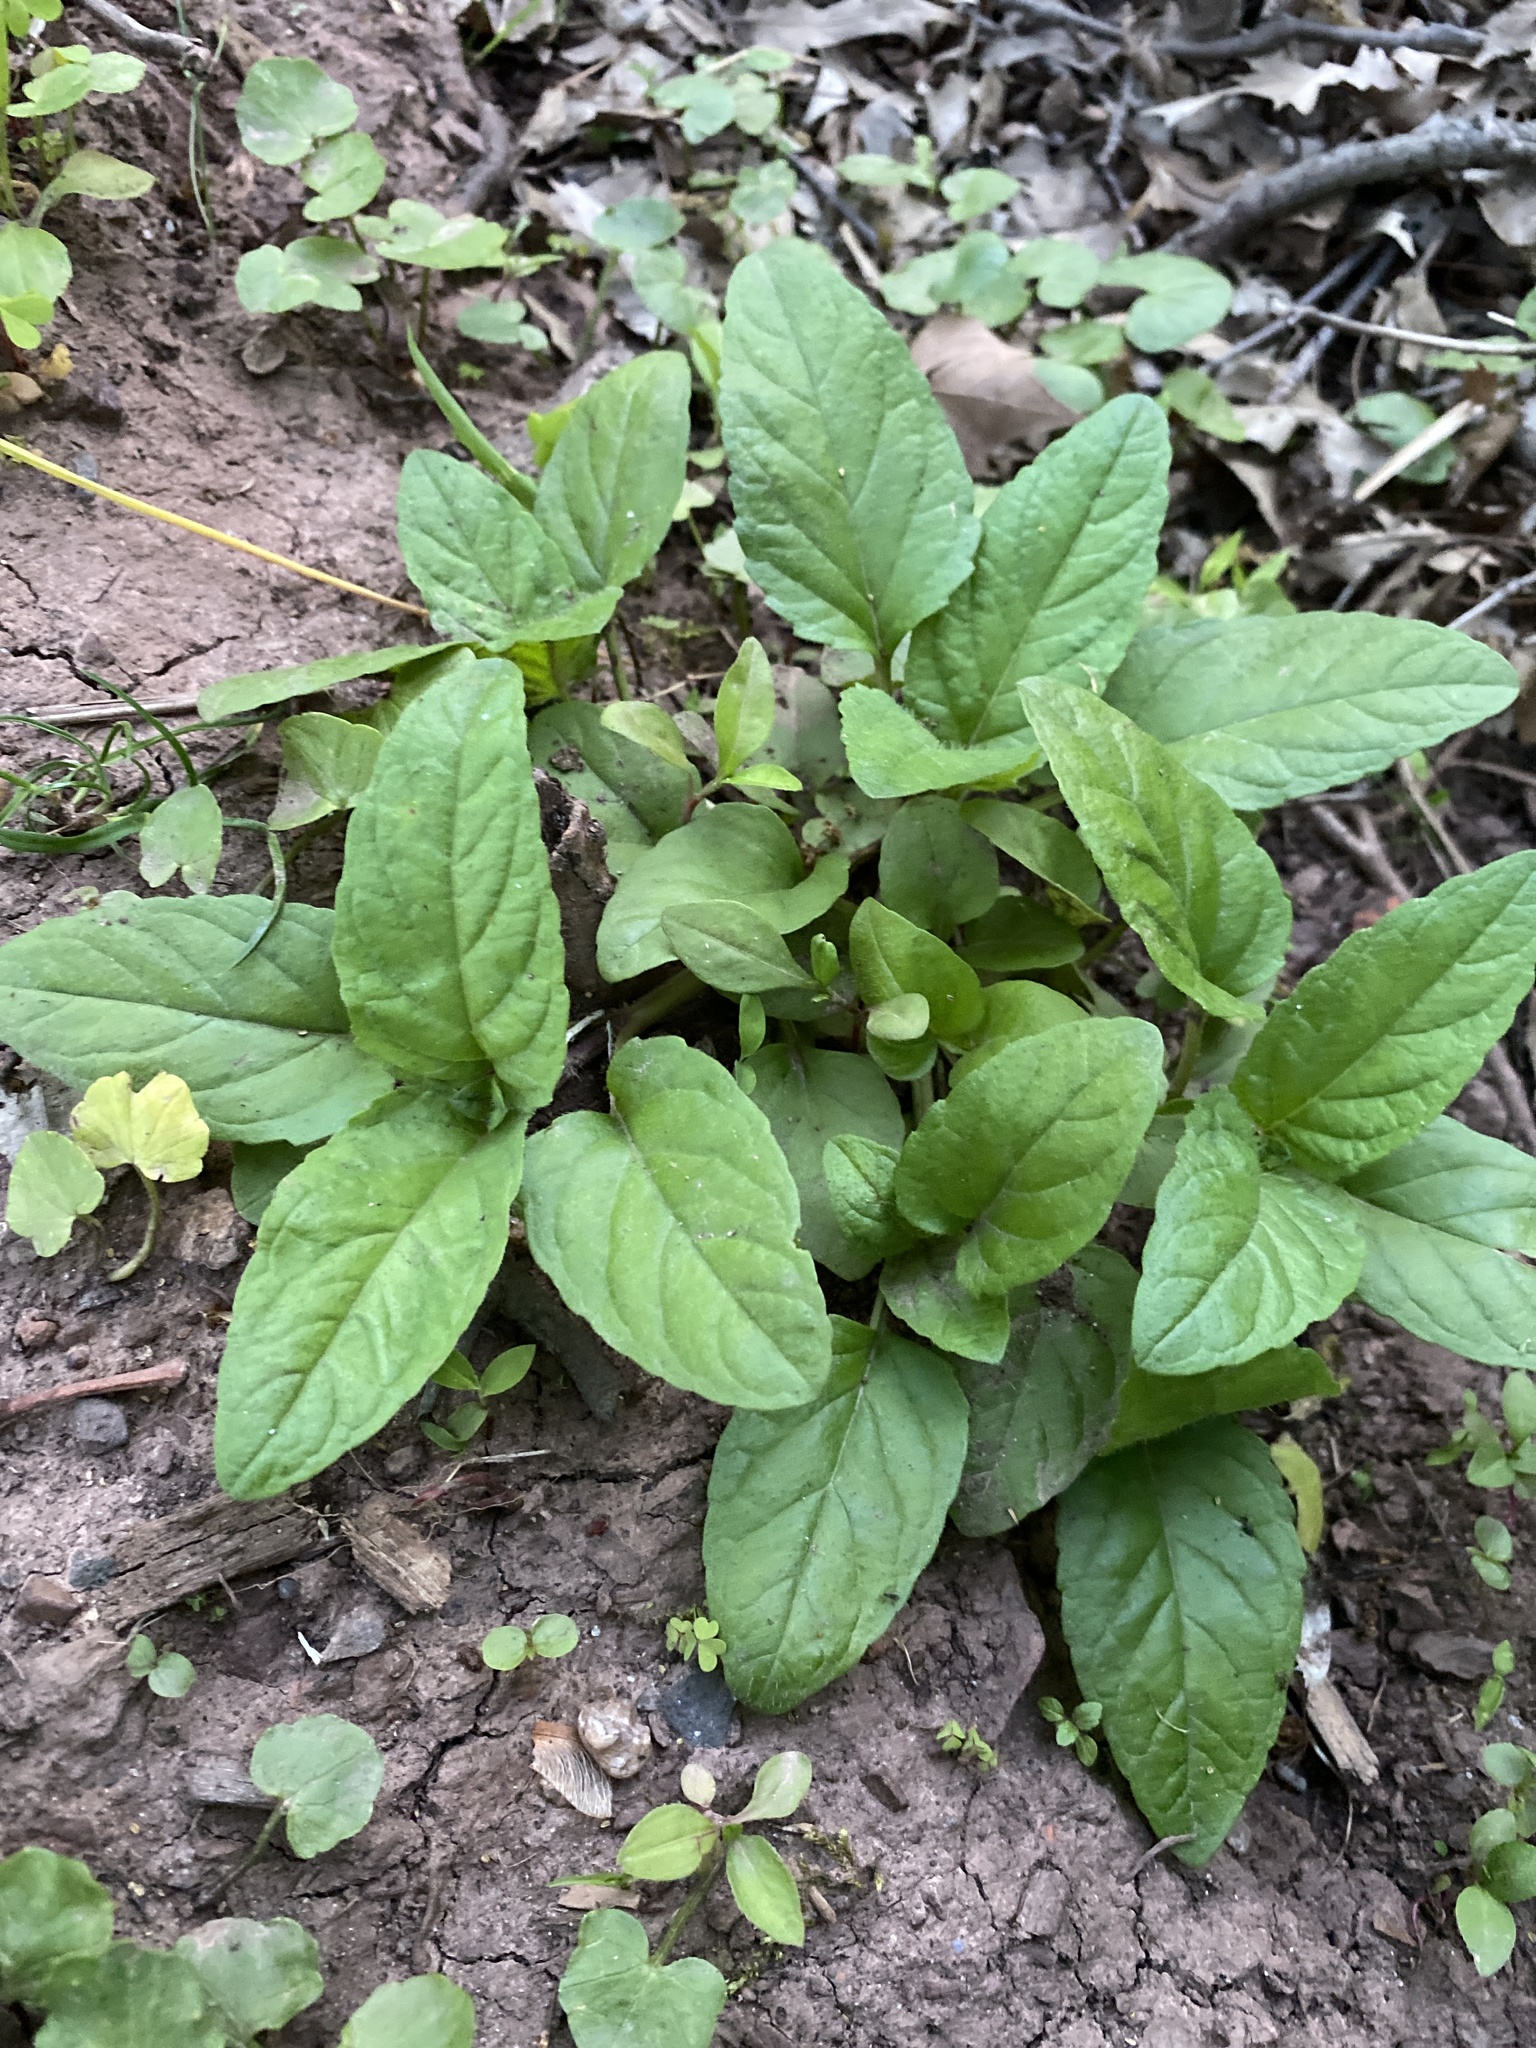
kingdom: Plantae
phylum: Tracheophyta
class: Magnoliopsida
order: Lamiales
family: Lamiaceae
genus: Prunella
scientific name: Prunella vulgaris
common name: Heal-all
